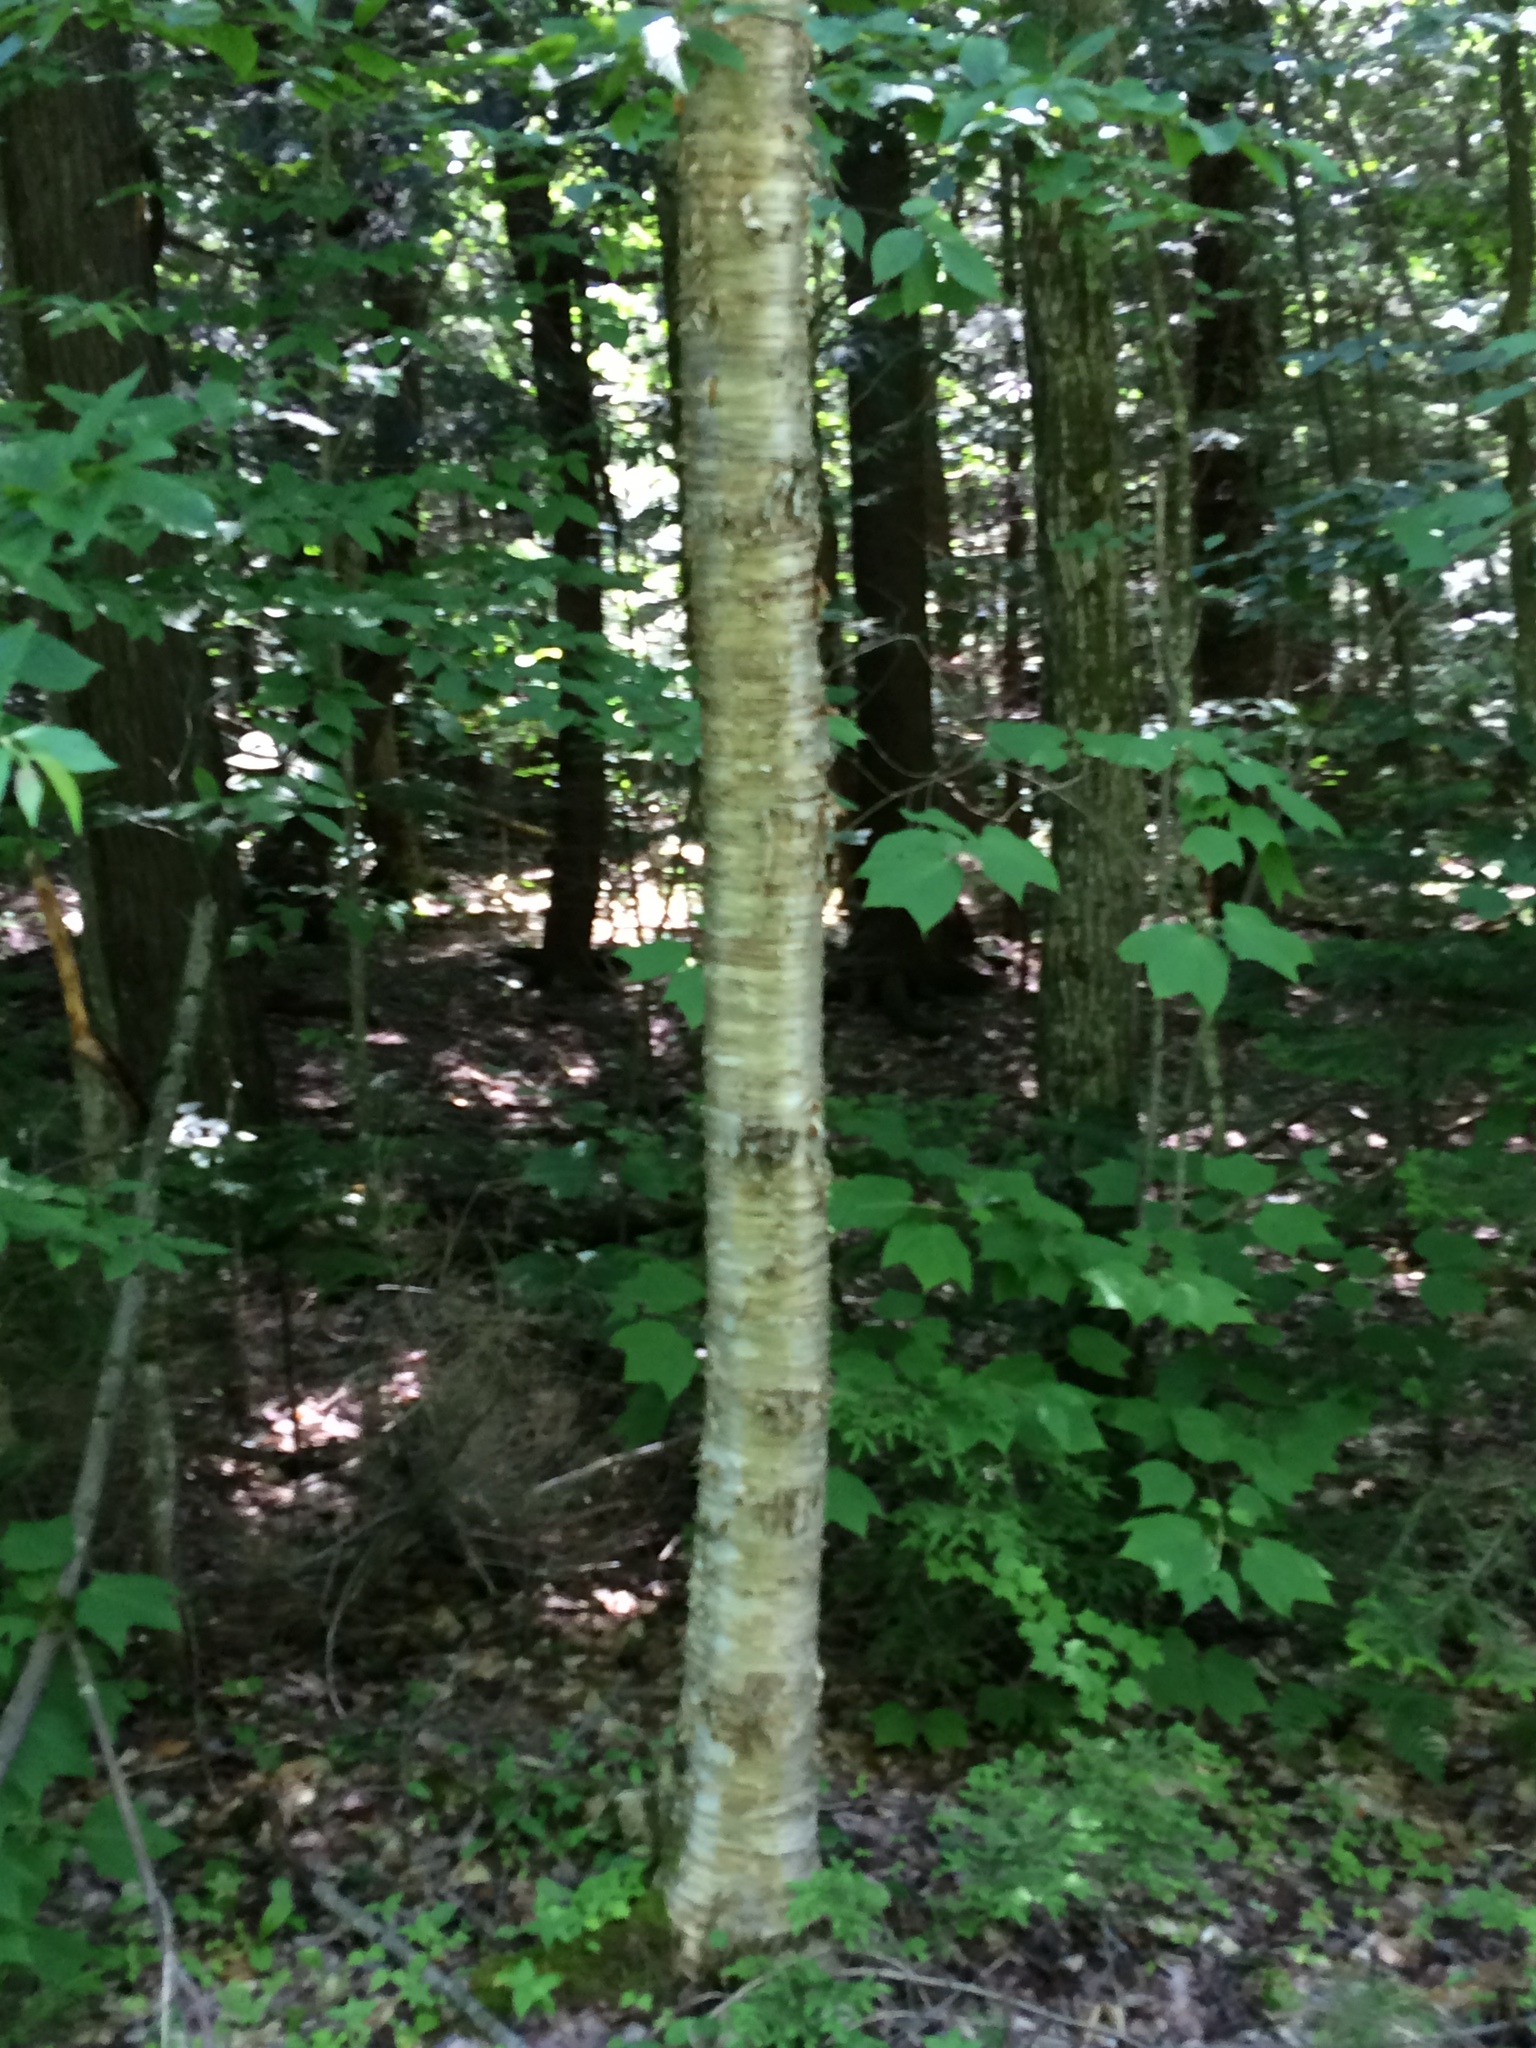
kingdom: Plantae
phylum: Tracheophyta
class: Magnoliopsida
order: Fagales
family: Betulaceae
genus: Betula
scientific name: Betula alleghaniensis
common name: Yellow birch
